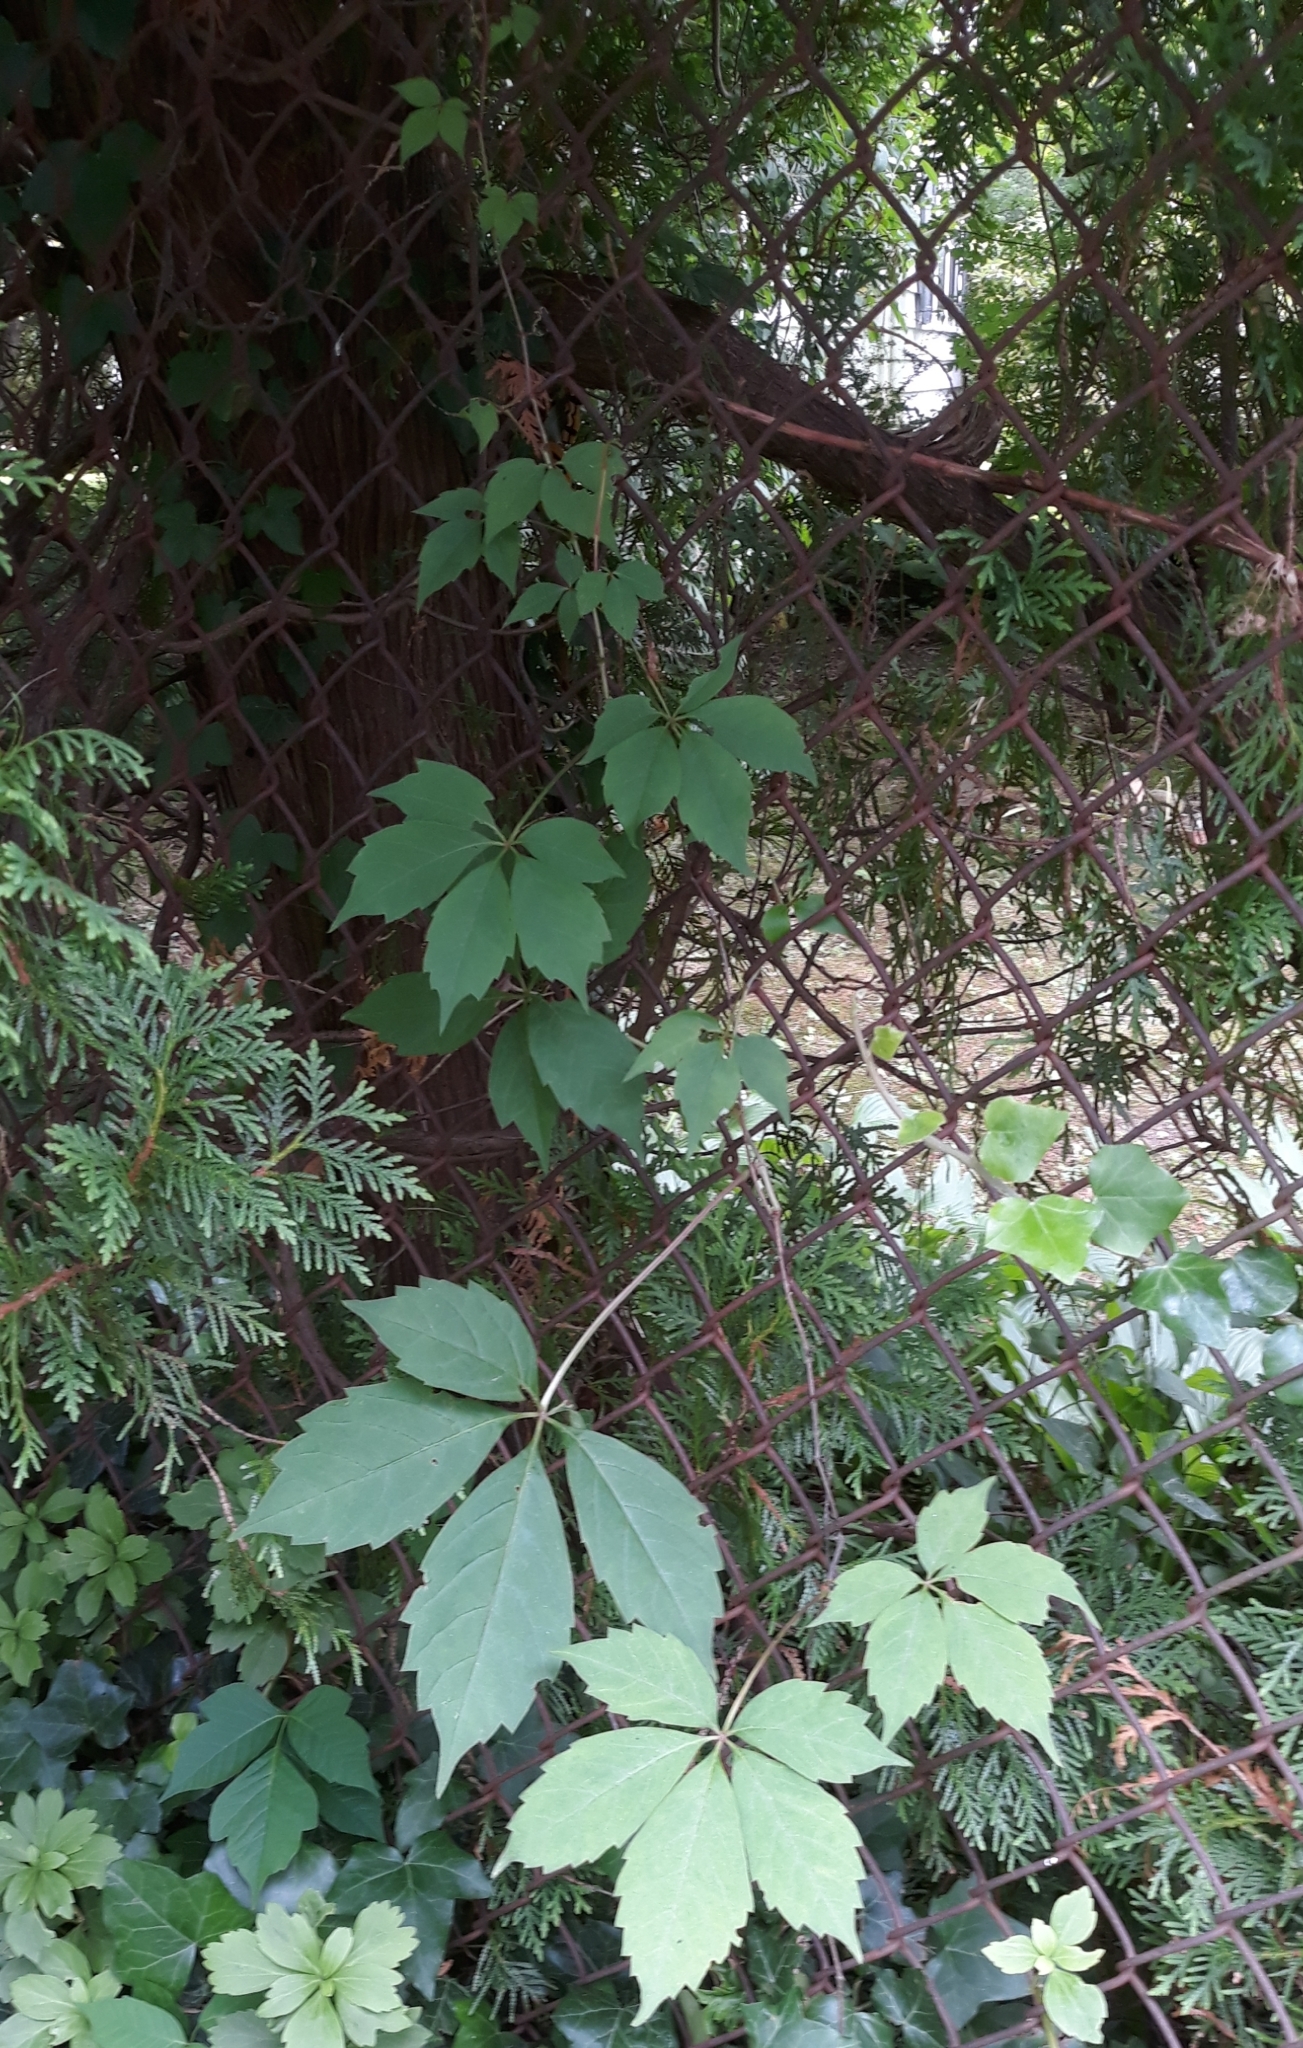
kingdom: Plantae
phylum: Tracheophyta
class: Magnoliopsida
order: Vitales
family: Vitaceae
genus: Parthenocissus
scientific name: Parthenocissus quinquefolia
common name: Virginia-creeper
